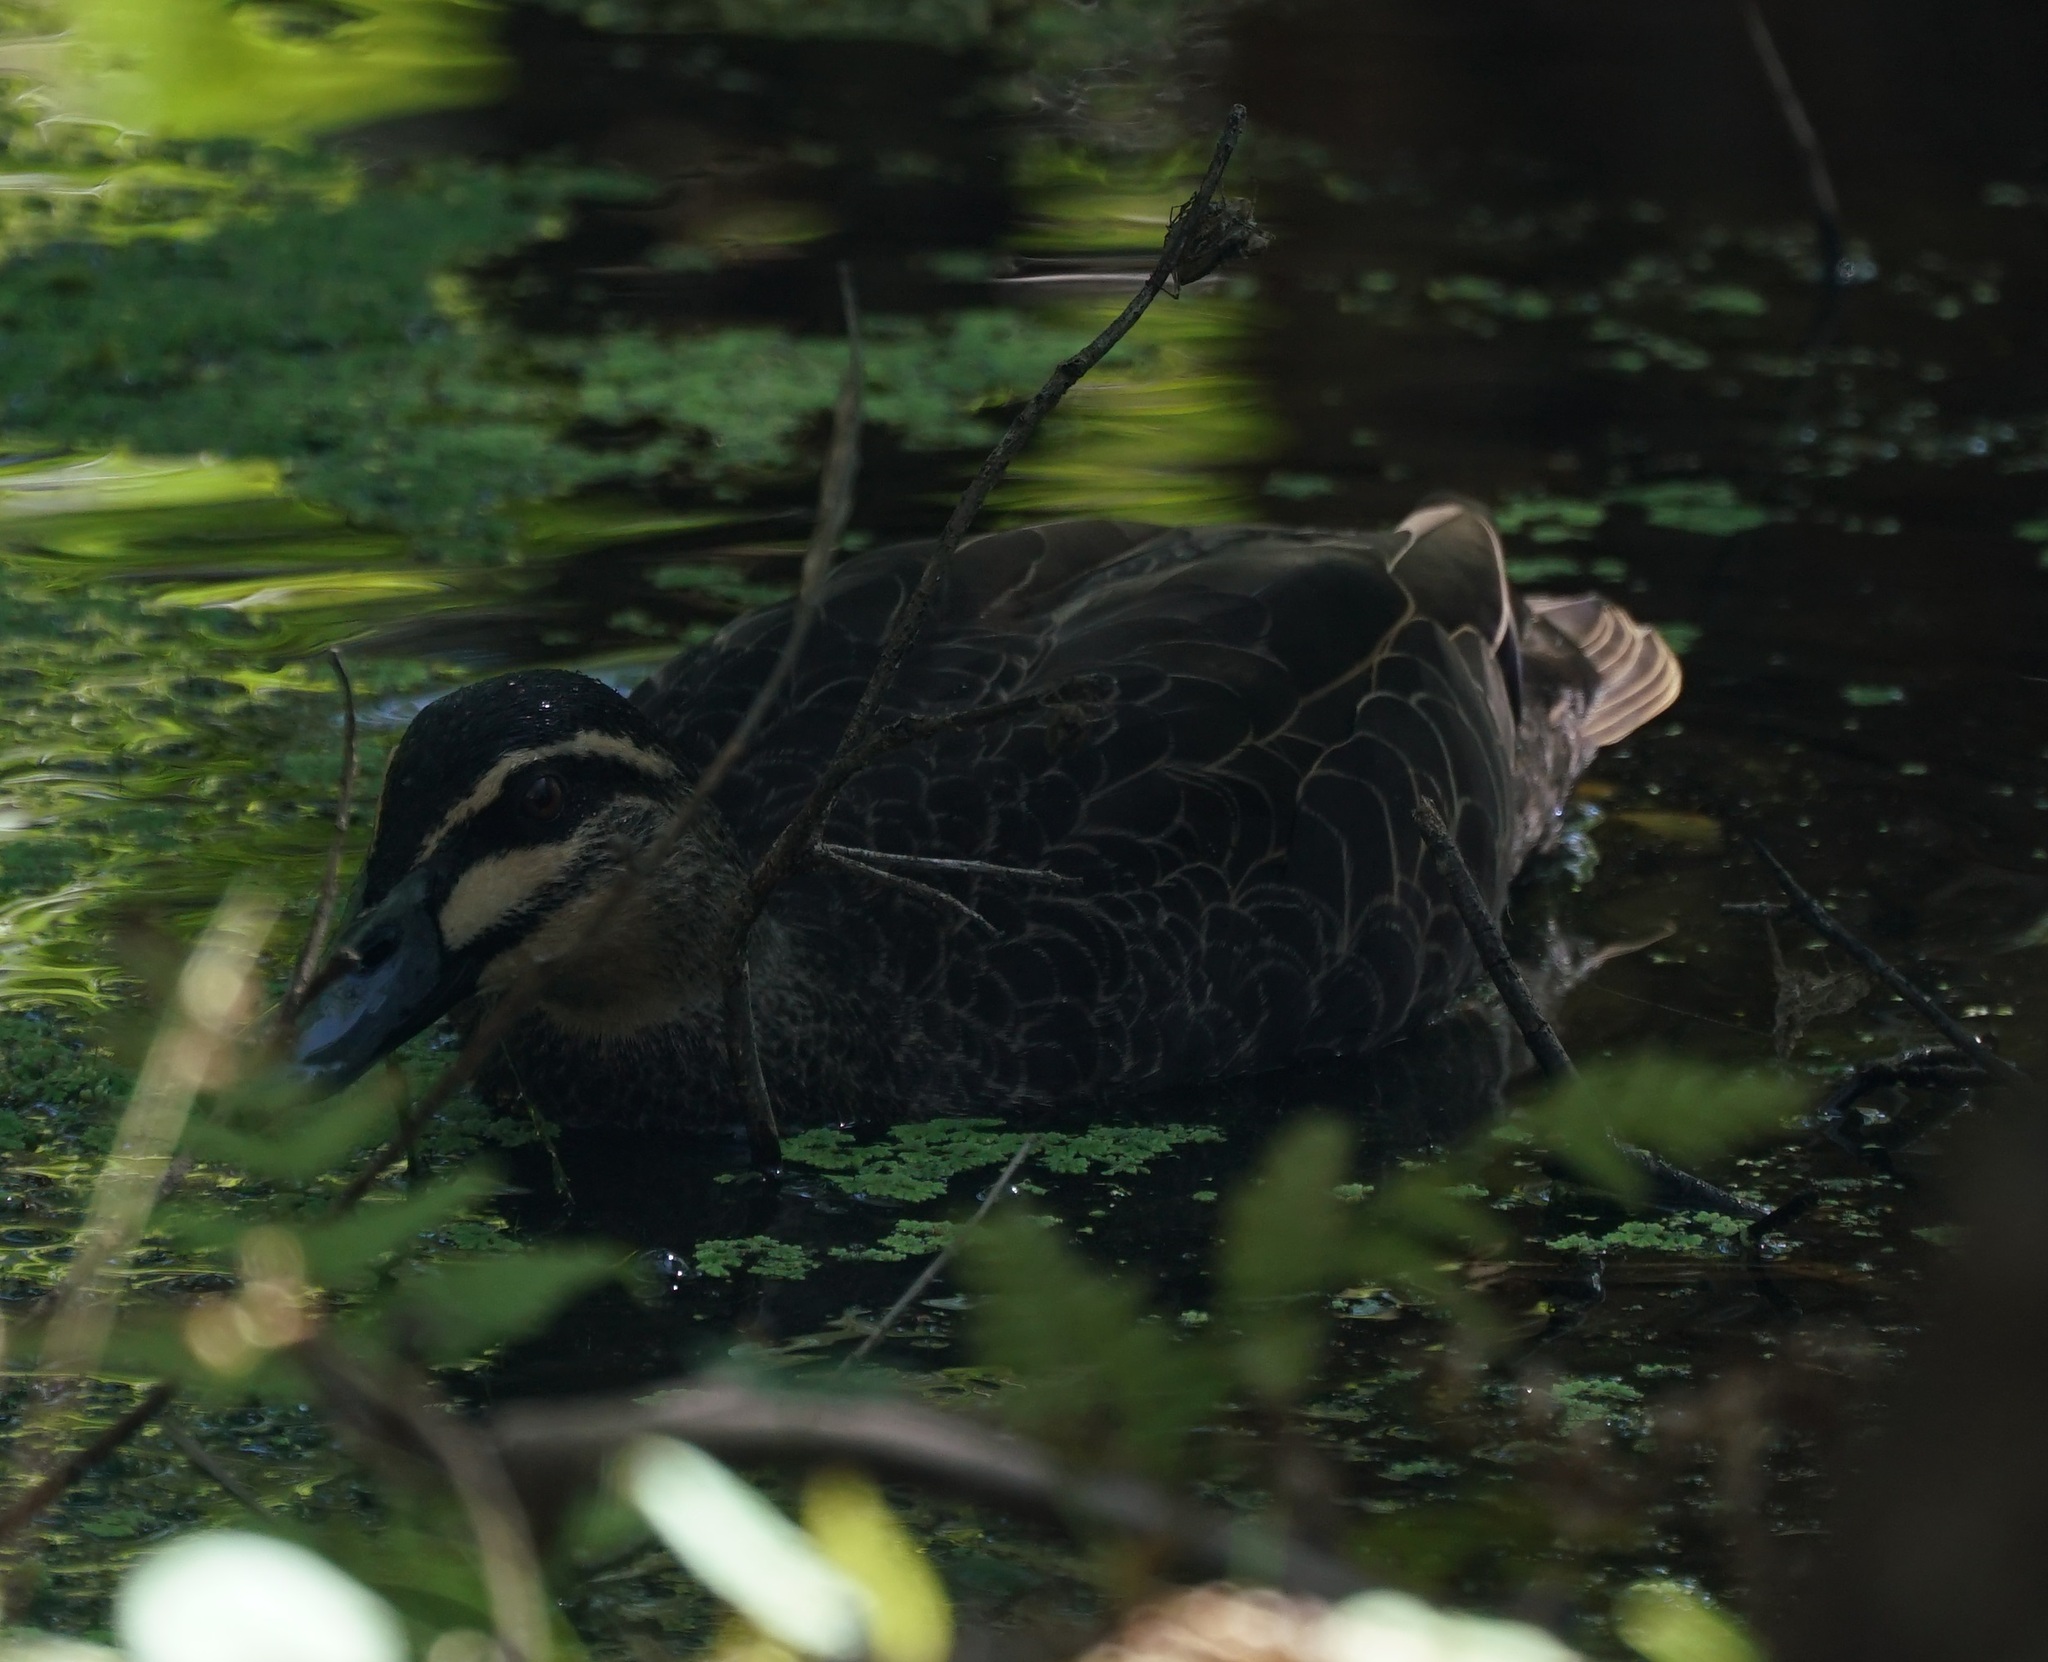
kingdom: Animalia
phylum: Chordata
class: Aves
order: Anseriformes
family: Anatidae
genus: Anas
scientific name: Anas superciliosa
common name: Pacific black duck
